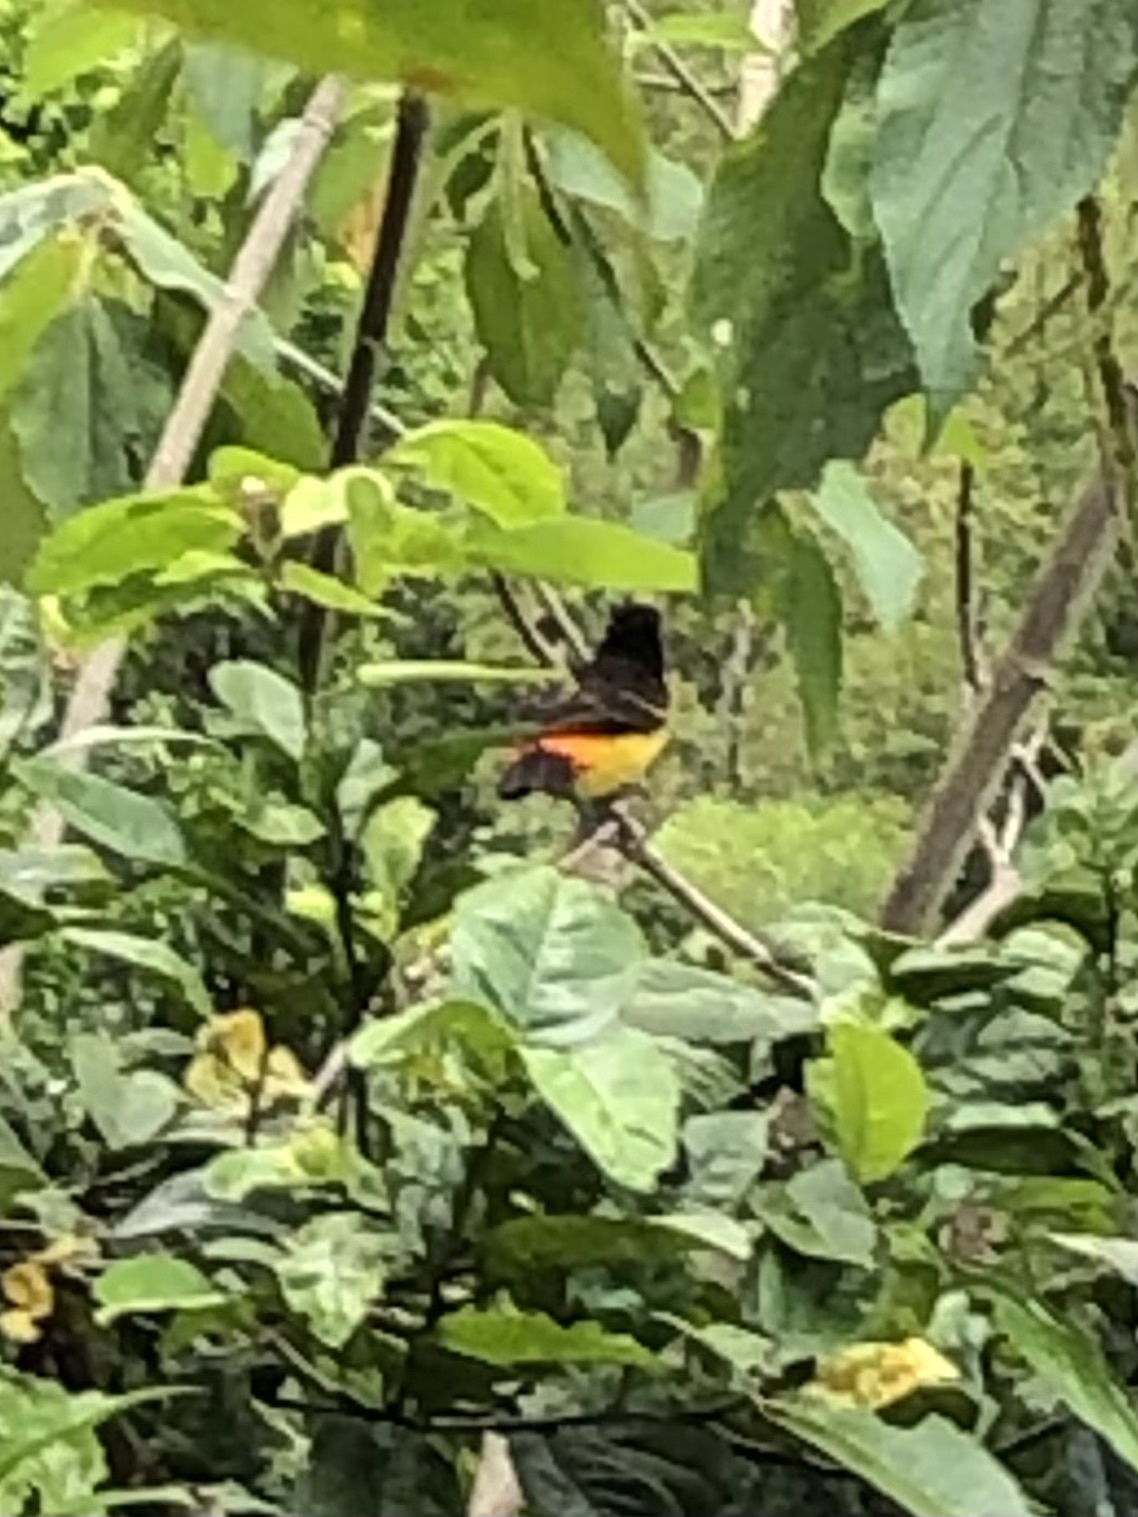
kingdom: Animalia
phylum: Chordata
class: Aves
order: Passeriformes
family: Thraupidae
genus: Ramphocelus
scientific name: Ramphocelus flammigerus
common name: Flame-rumped tanager
